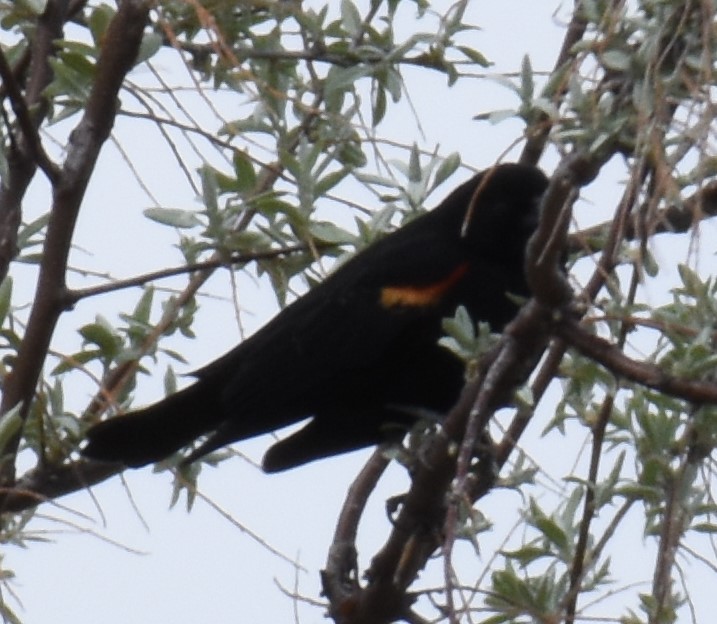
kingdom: Animalia
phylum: Chordata
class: Aves
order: Passeriformes
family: Icteridae
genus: Agelaius
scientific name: Agelaius phoeniceus
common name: Red-winged blackbird
